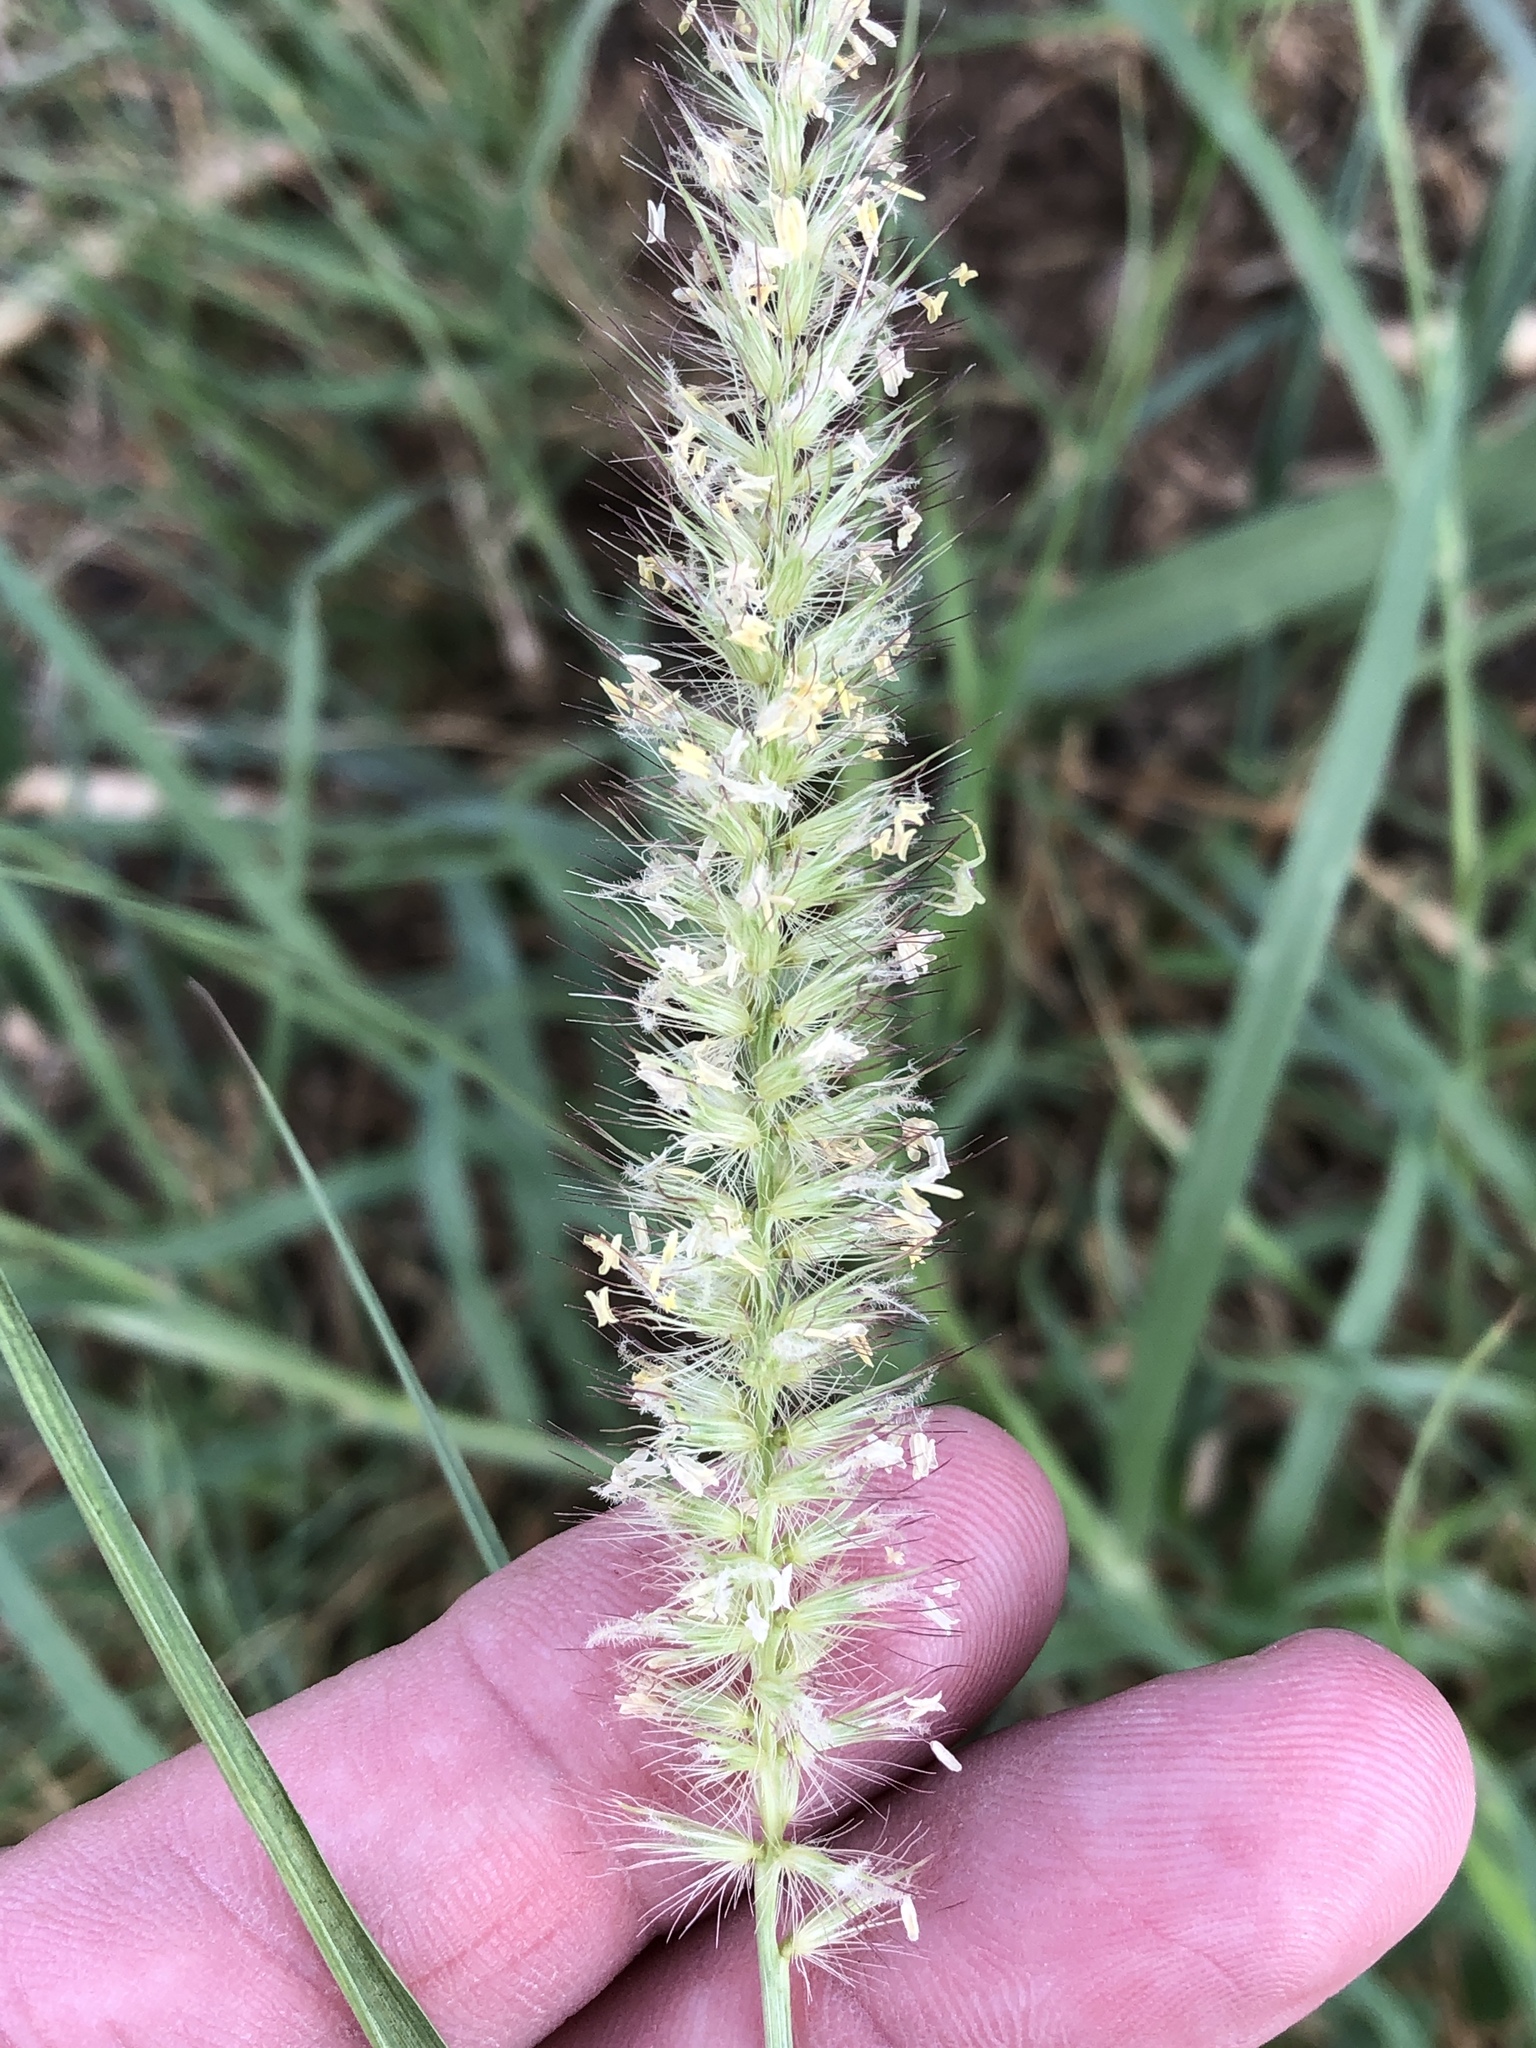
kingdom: Plantae
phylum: Tracheophyta
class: Liliopsida
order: Poales
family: Poaceae
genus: Cenchrus
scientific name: Cenchrus ciliaris
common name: Buffelgrass
